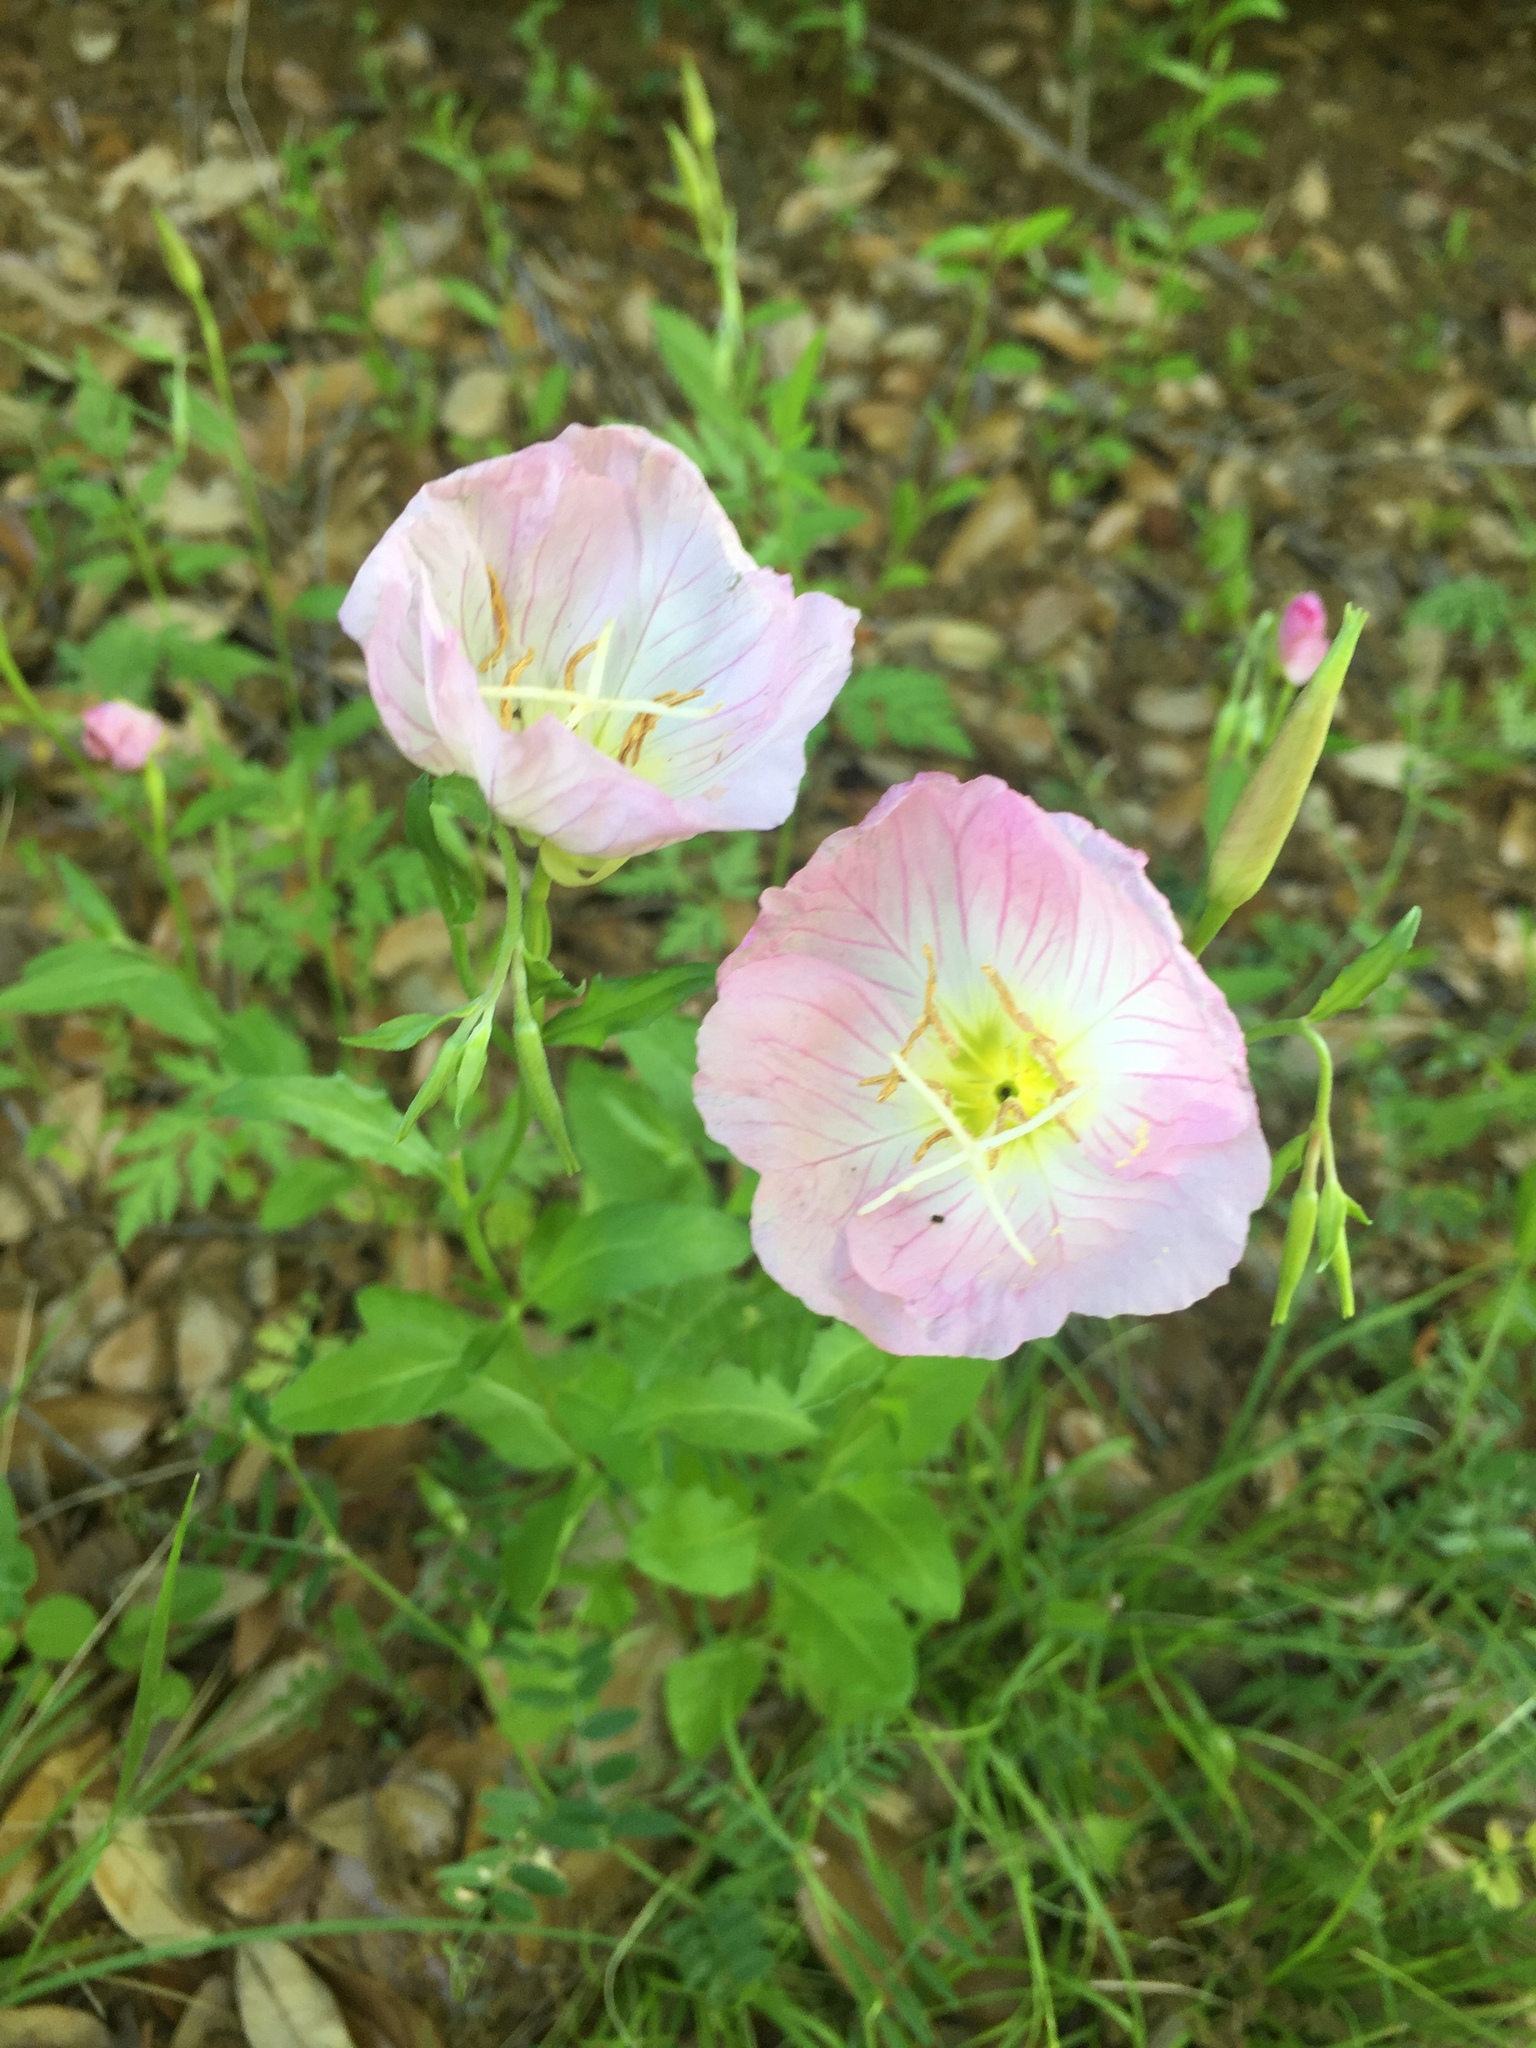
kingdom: Plantae
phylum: Tracheophyta
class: Magnoliopsida
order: Myrtales
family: Onagraceae
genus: Oenothera
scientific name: Oenothera speciosa
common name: White evening-primrose
